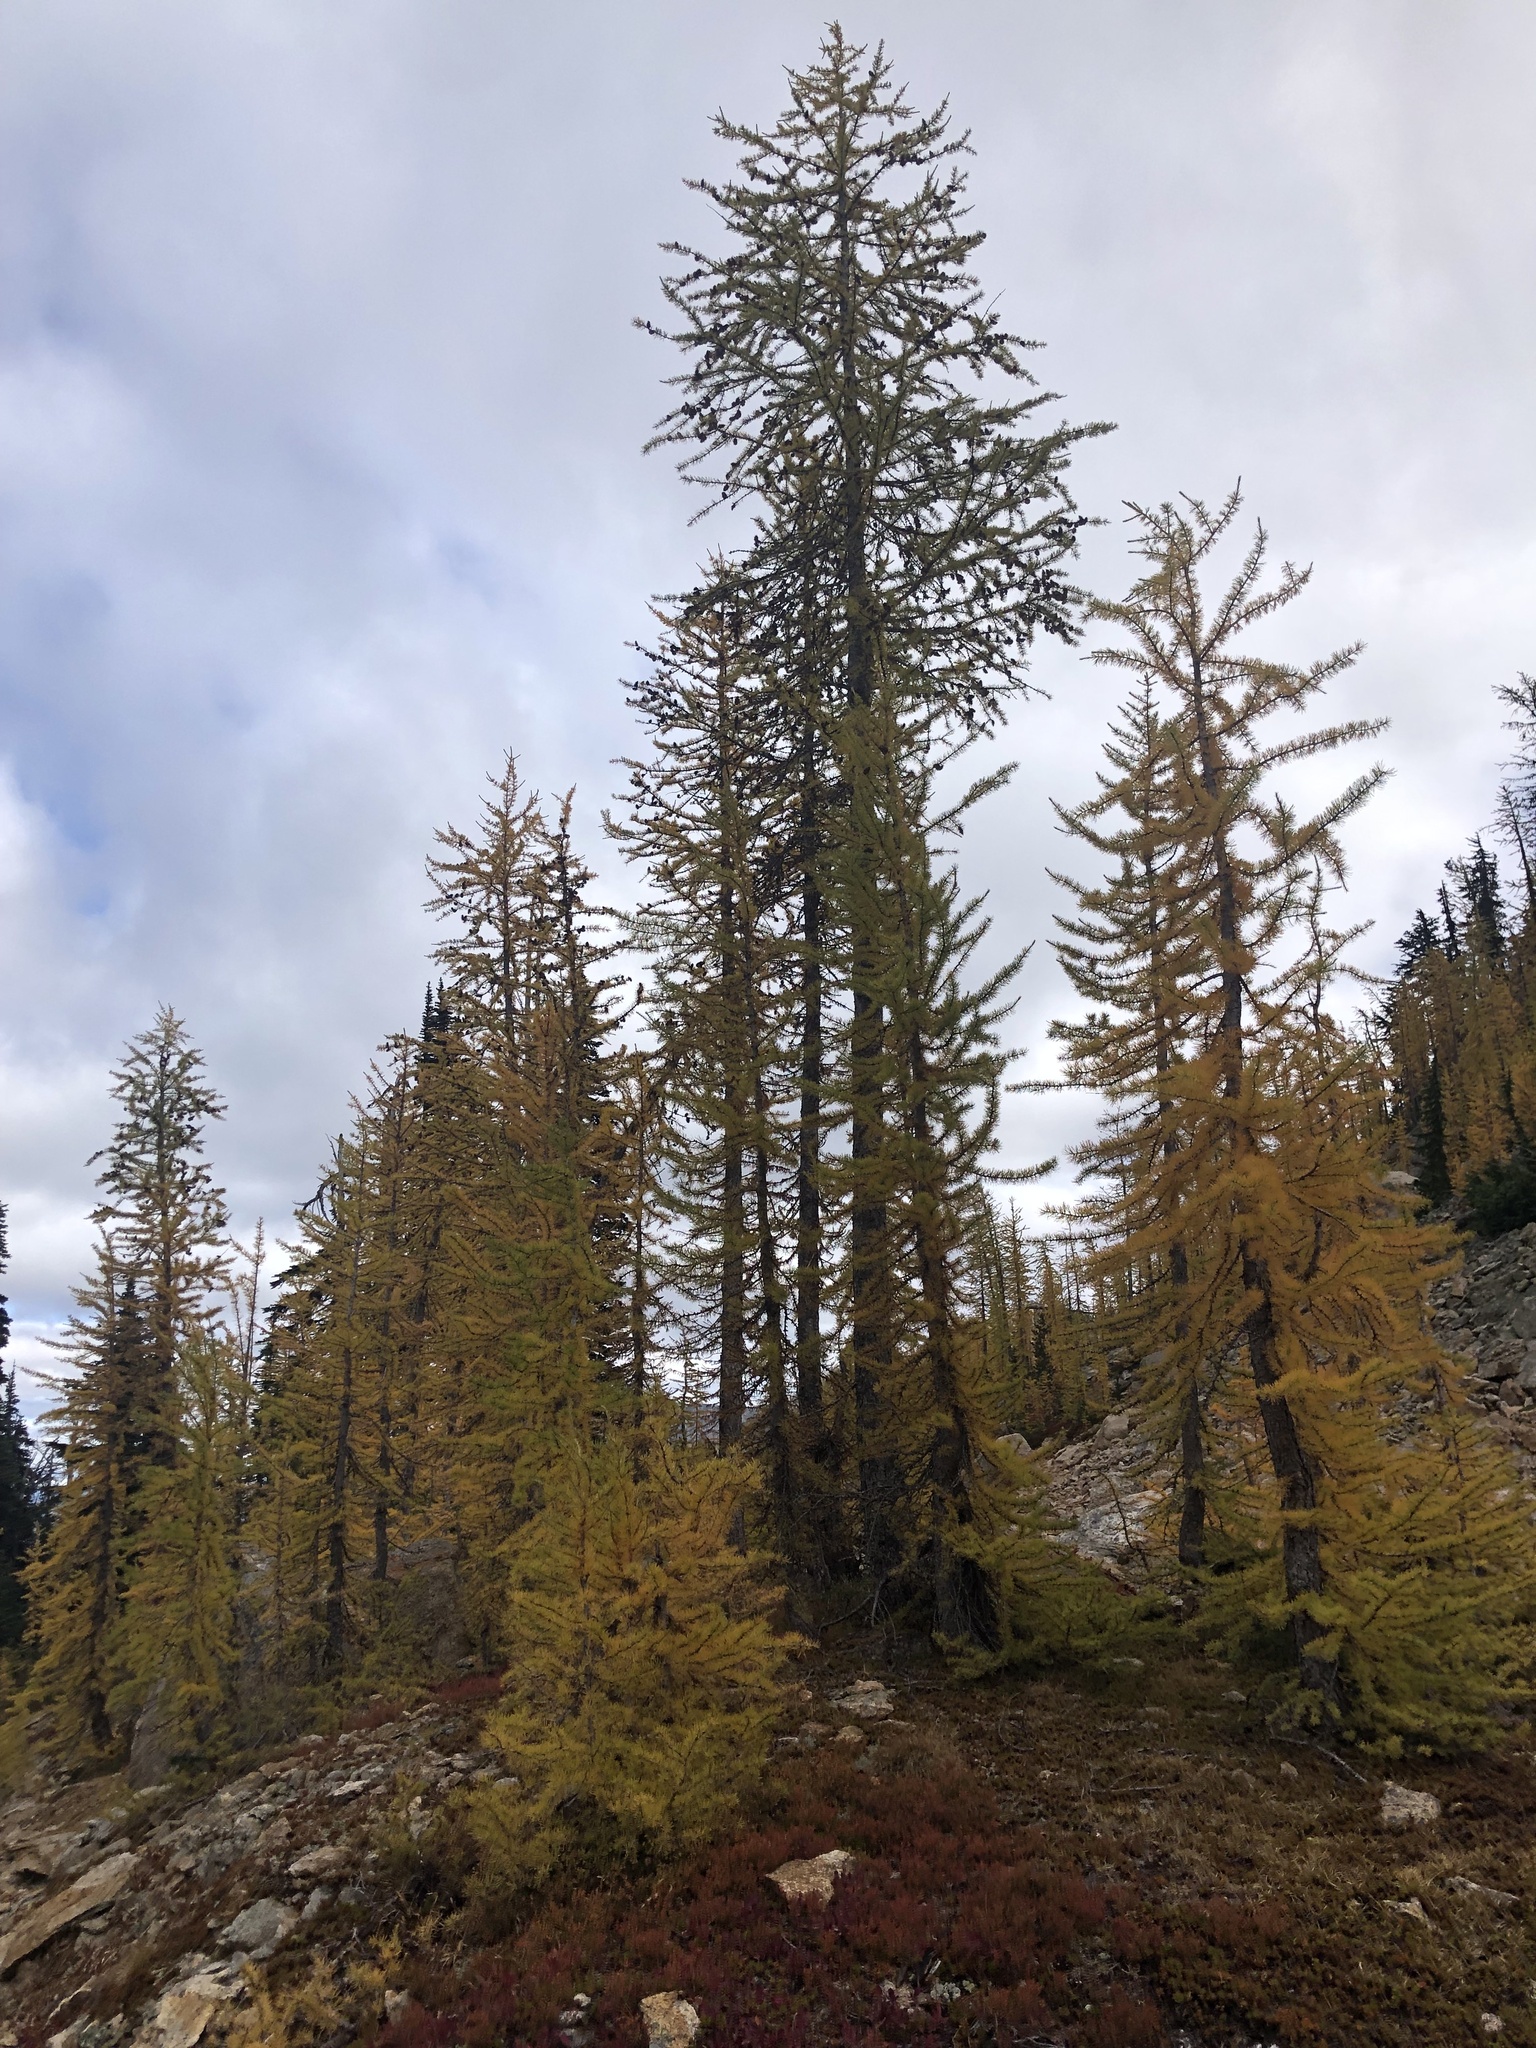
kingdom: Plantae
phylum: Tracheophyta
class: Pinopsida
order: Pinales
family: Pinaceae
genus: Larix
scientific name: Larix lyallii
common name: Alpine larch
